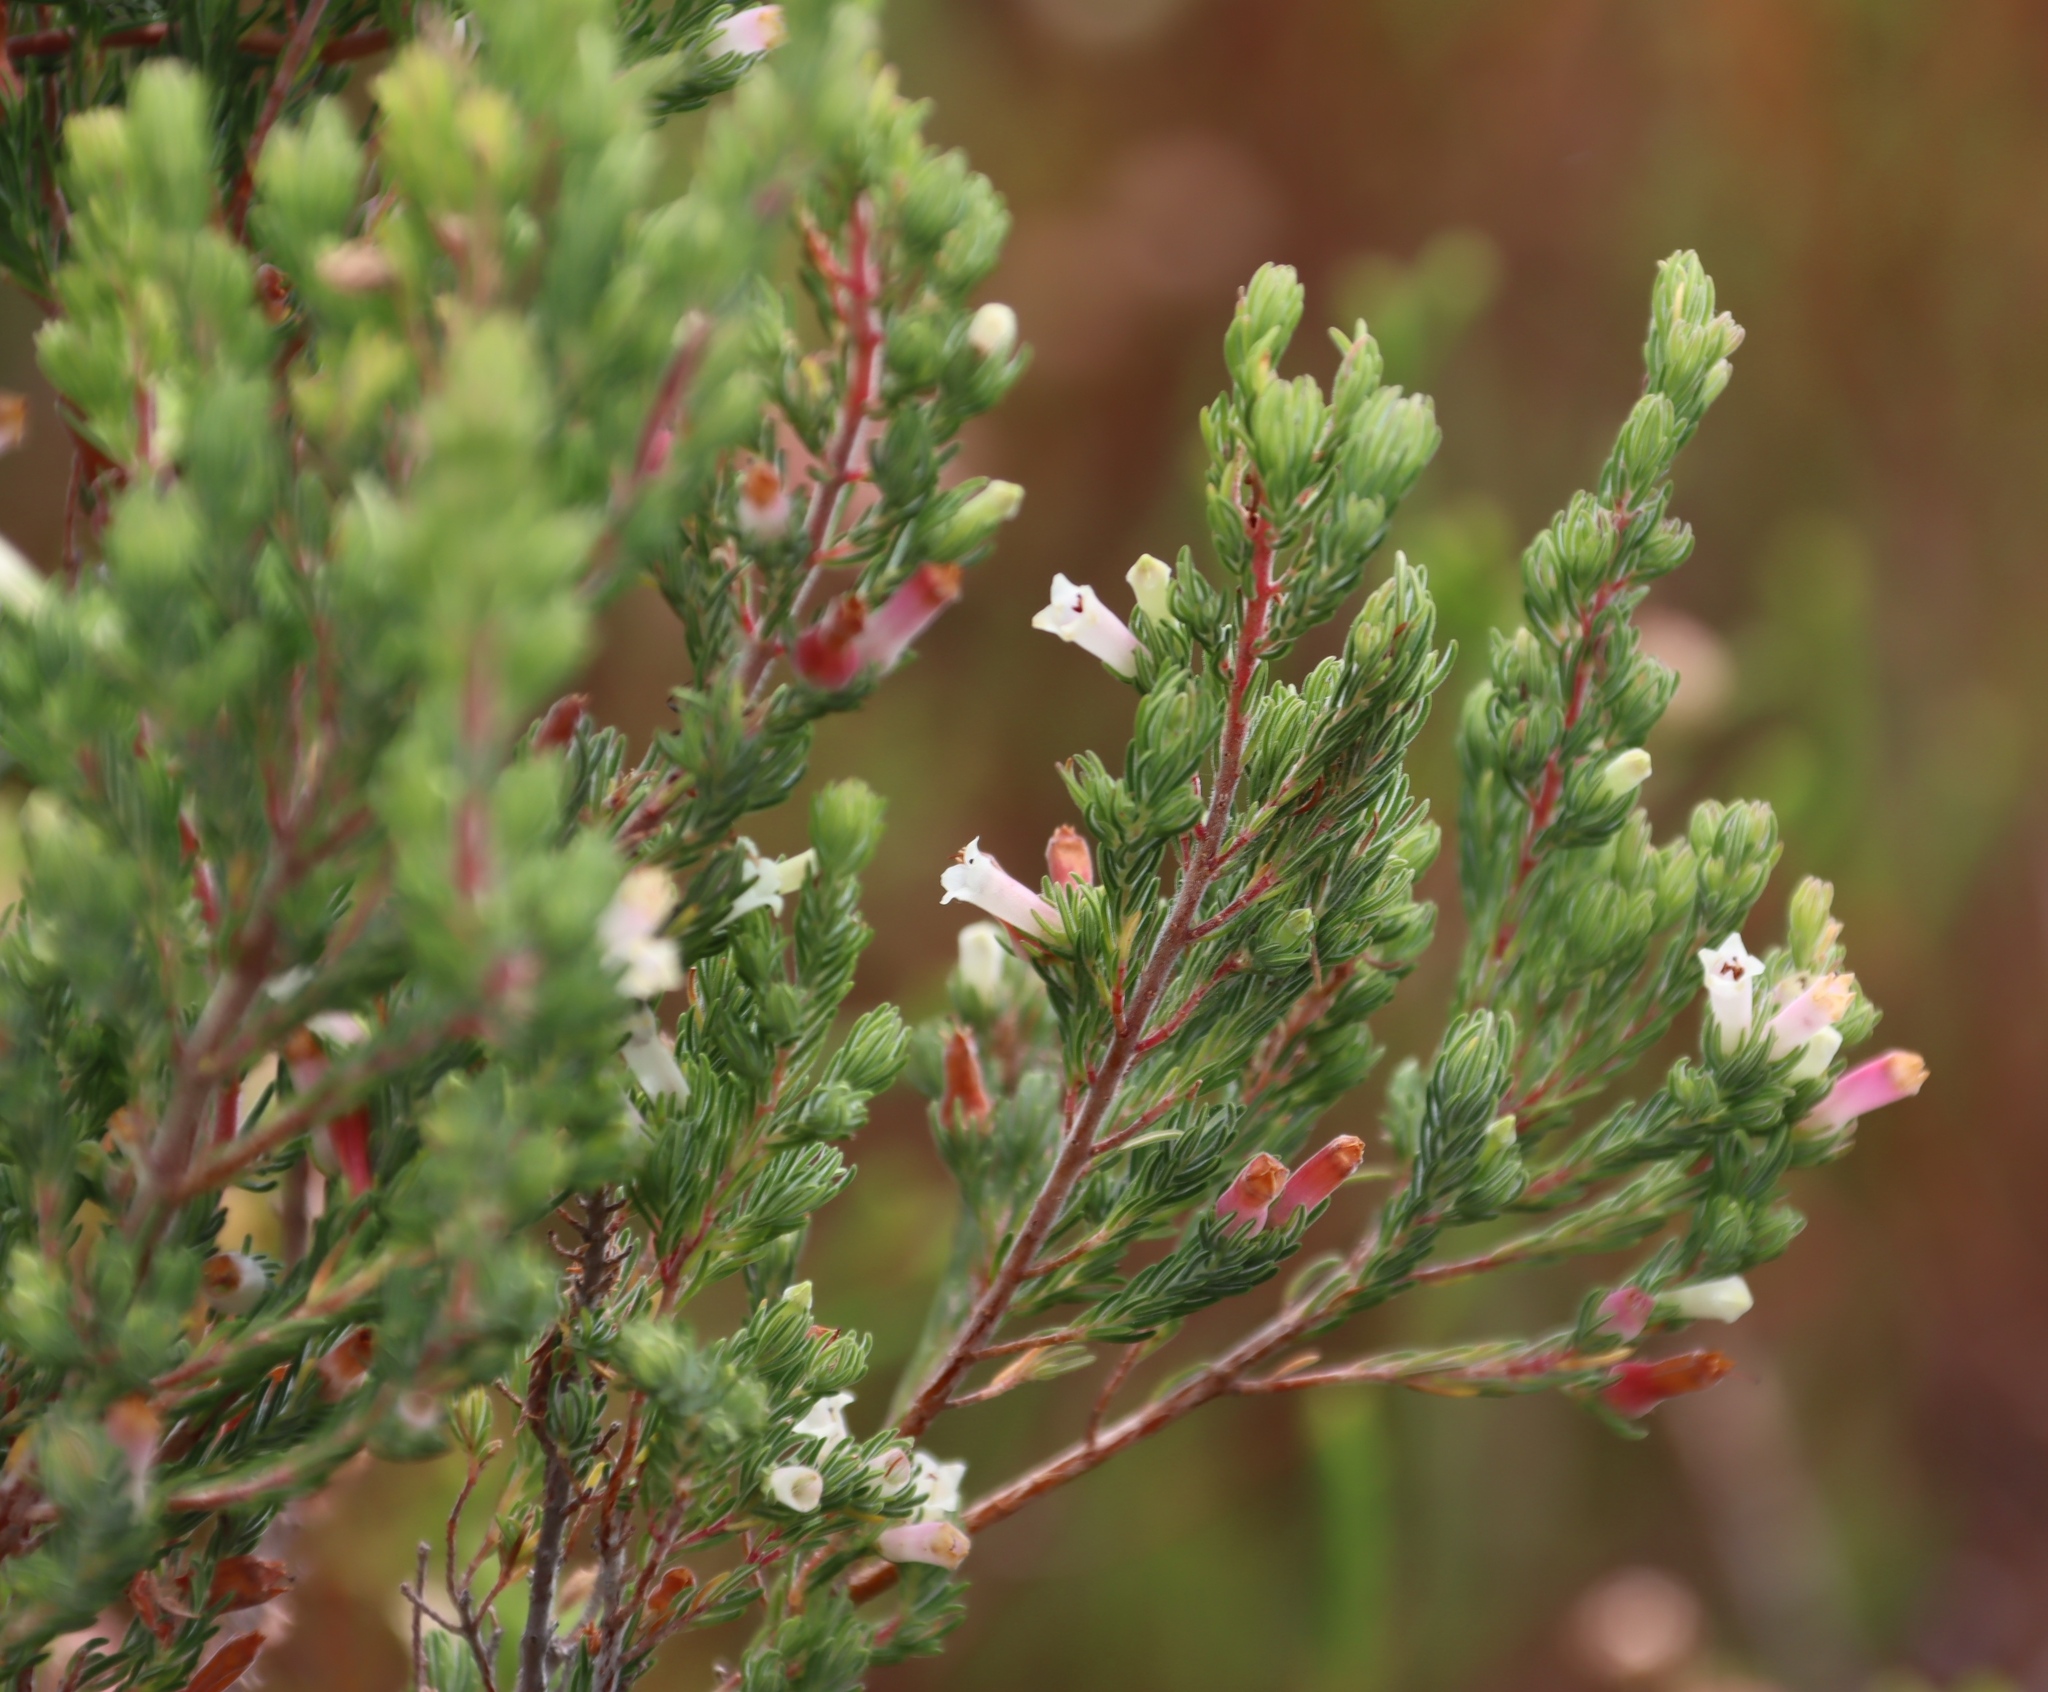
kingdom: Plantae
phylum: Tracheophyta
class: Magnoliopsida
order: Ericales
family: Ericaceae
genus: Erica
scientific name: Erica fontana
